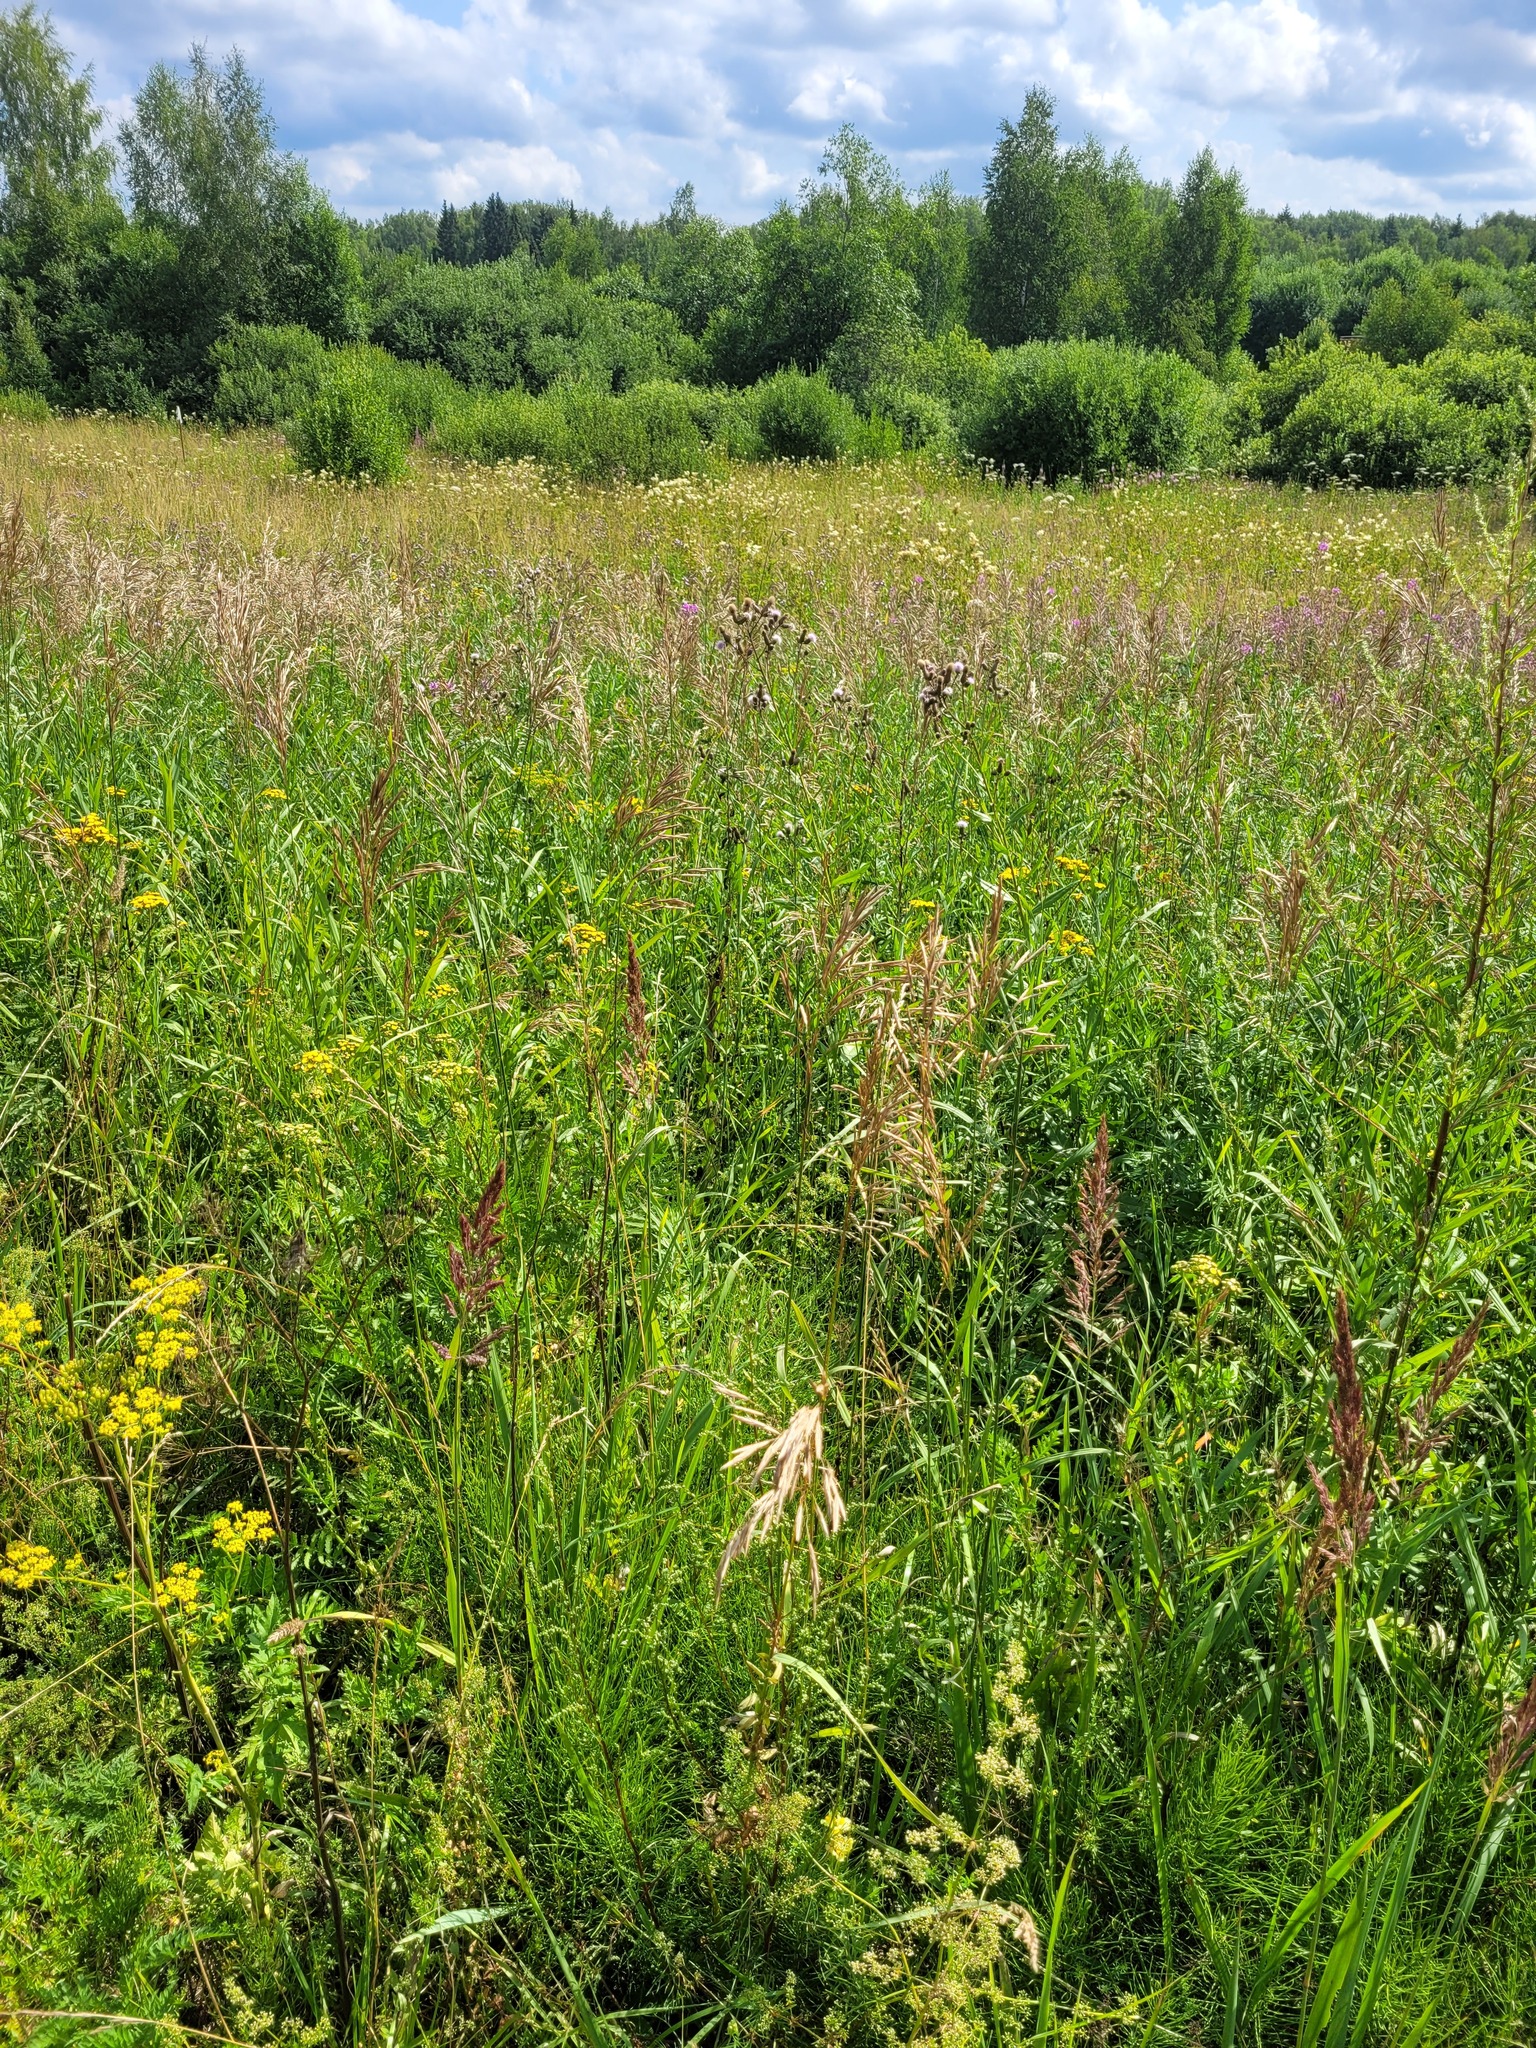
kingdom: Plantae
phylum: Tracheophyta
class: Liliopsida
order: Poales
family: Poaceae
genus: Bromus
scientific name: Bromus inermis
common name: Smooth brome
